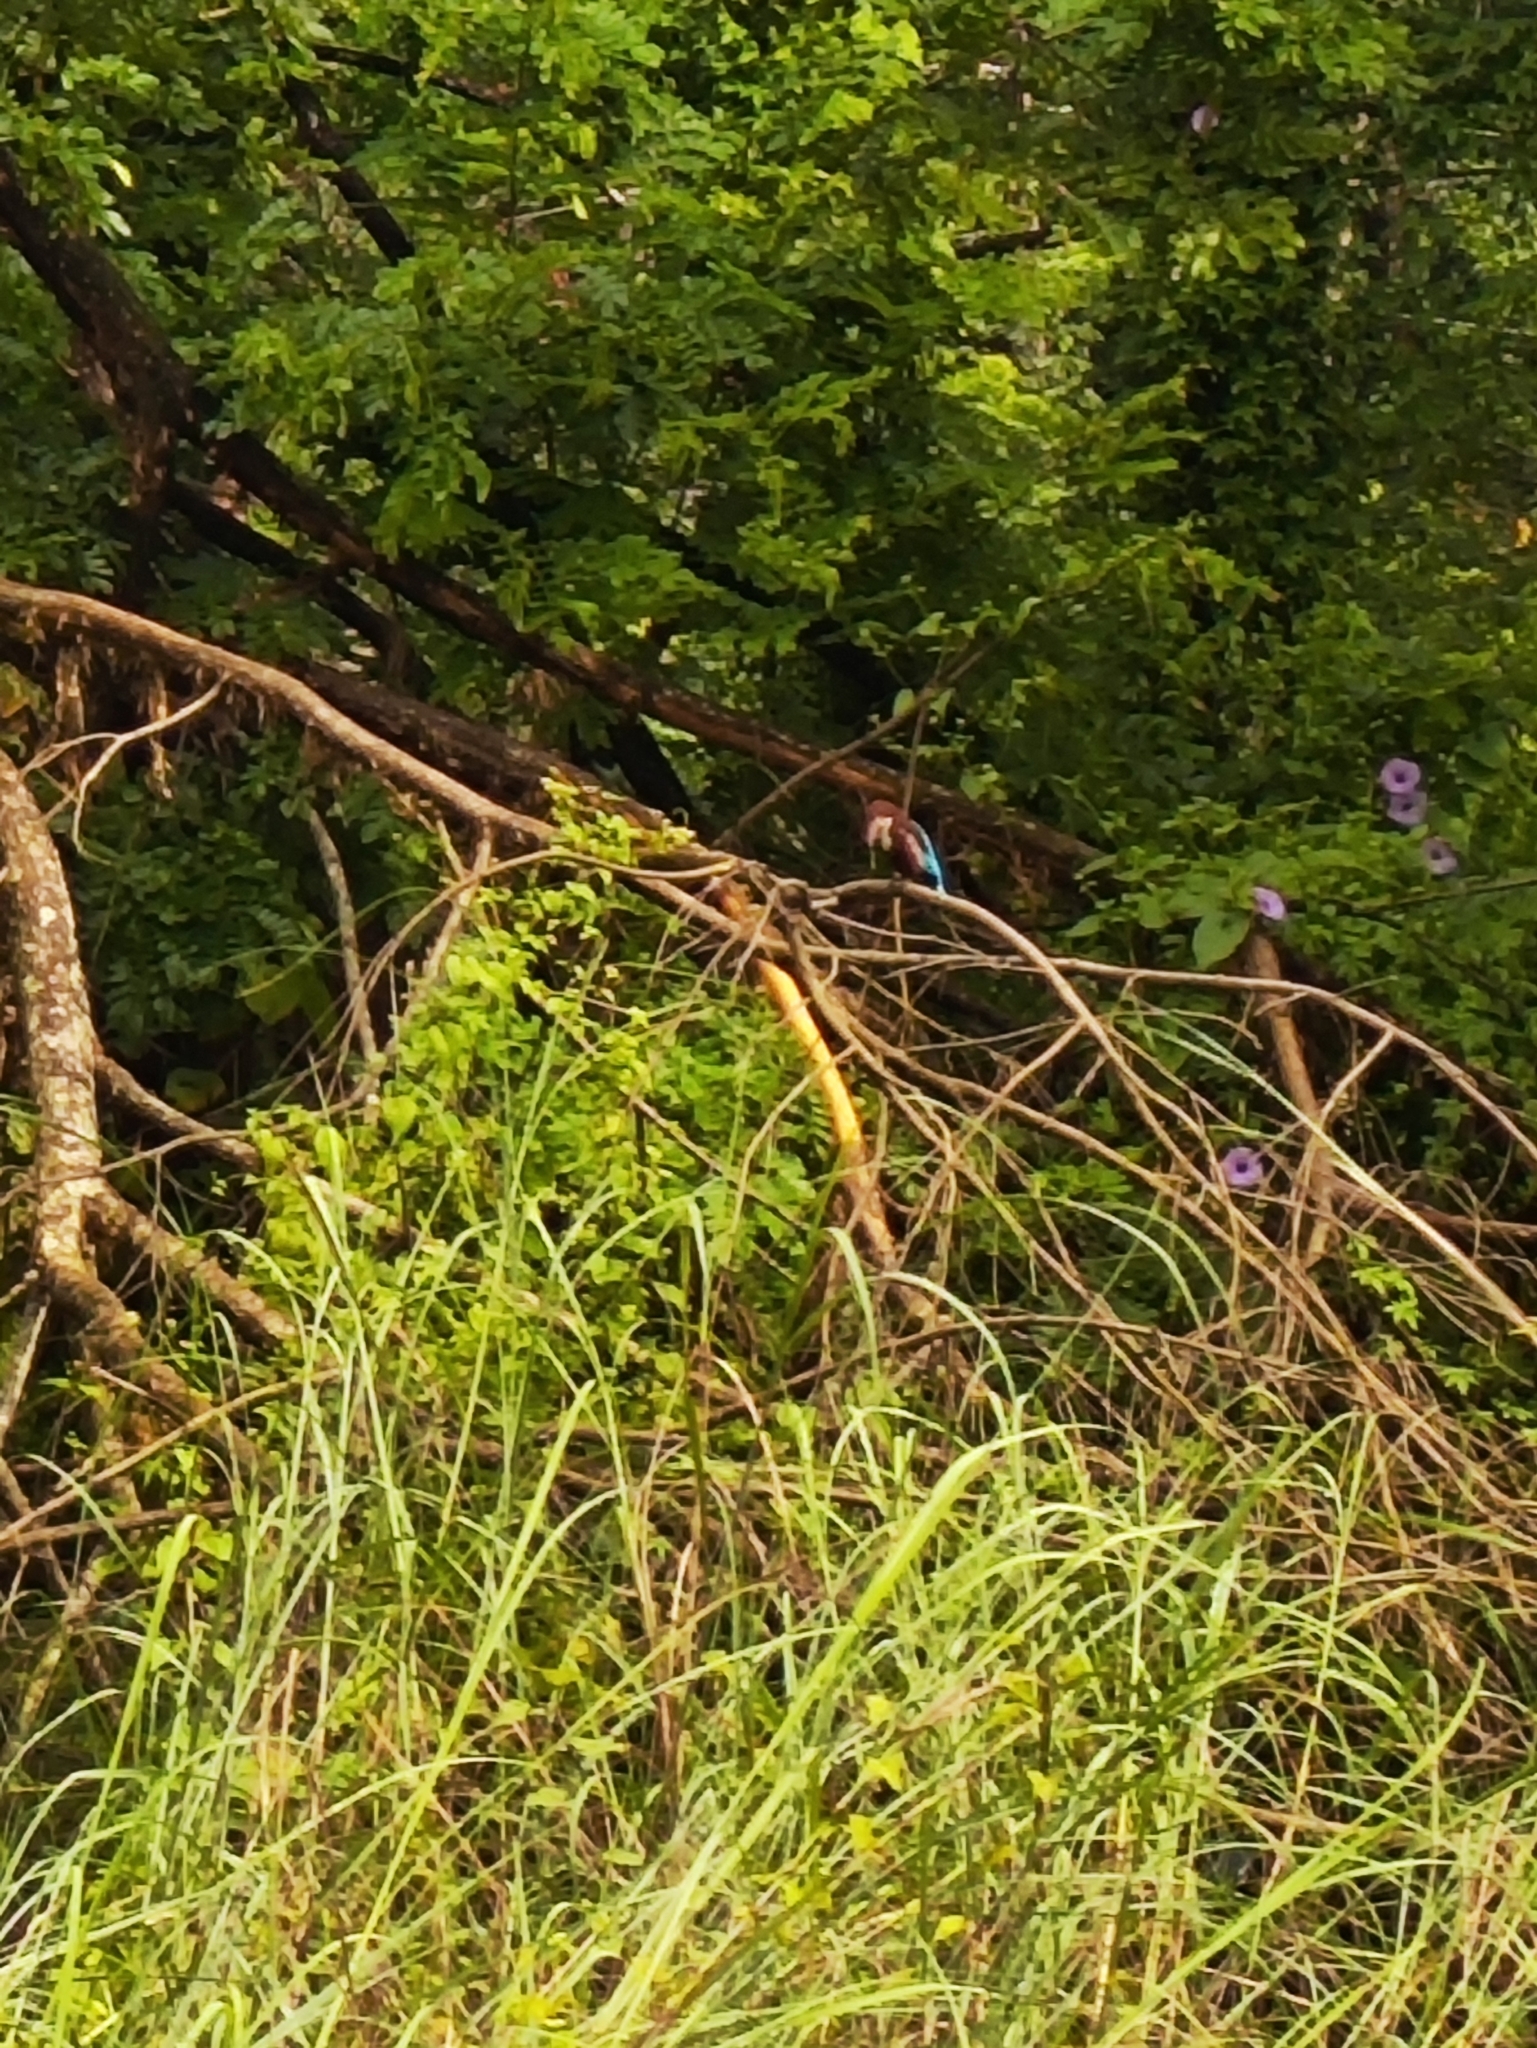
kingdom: Animalia
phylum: Chordata
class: Aves
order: Coraciiformes
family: Alcedinidae
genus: Halcyon
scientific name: Halcyon smyrnensis
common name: White-throated kingfisher
